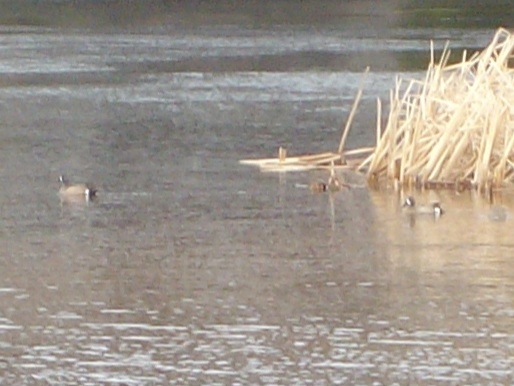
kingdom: Animalia
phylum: Chordata
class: Aves
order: Anseriformes
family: Anatidae
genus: Spatula
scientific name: Spatula discors
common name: Blue-winged teal
